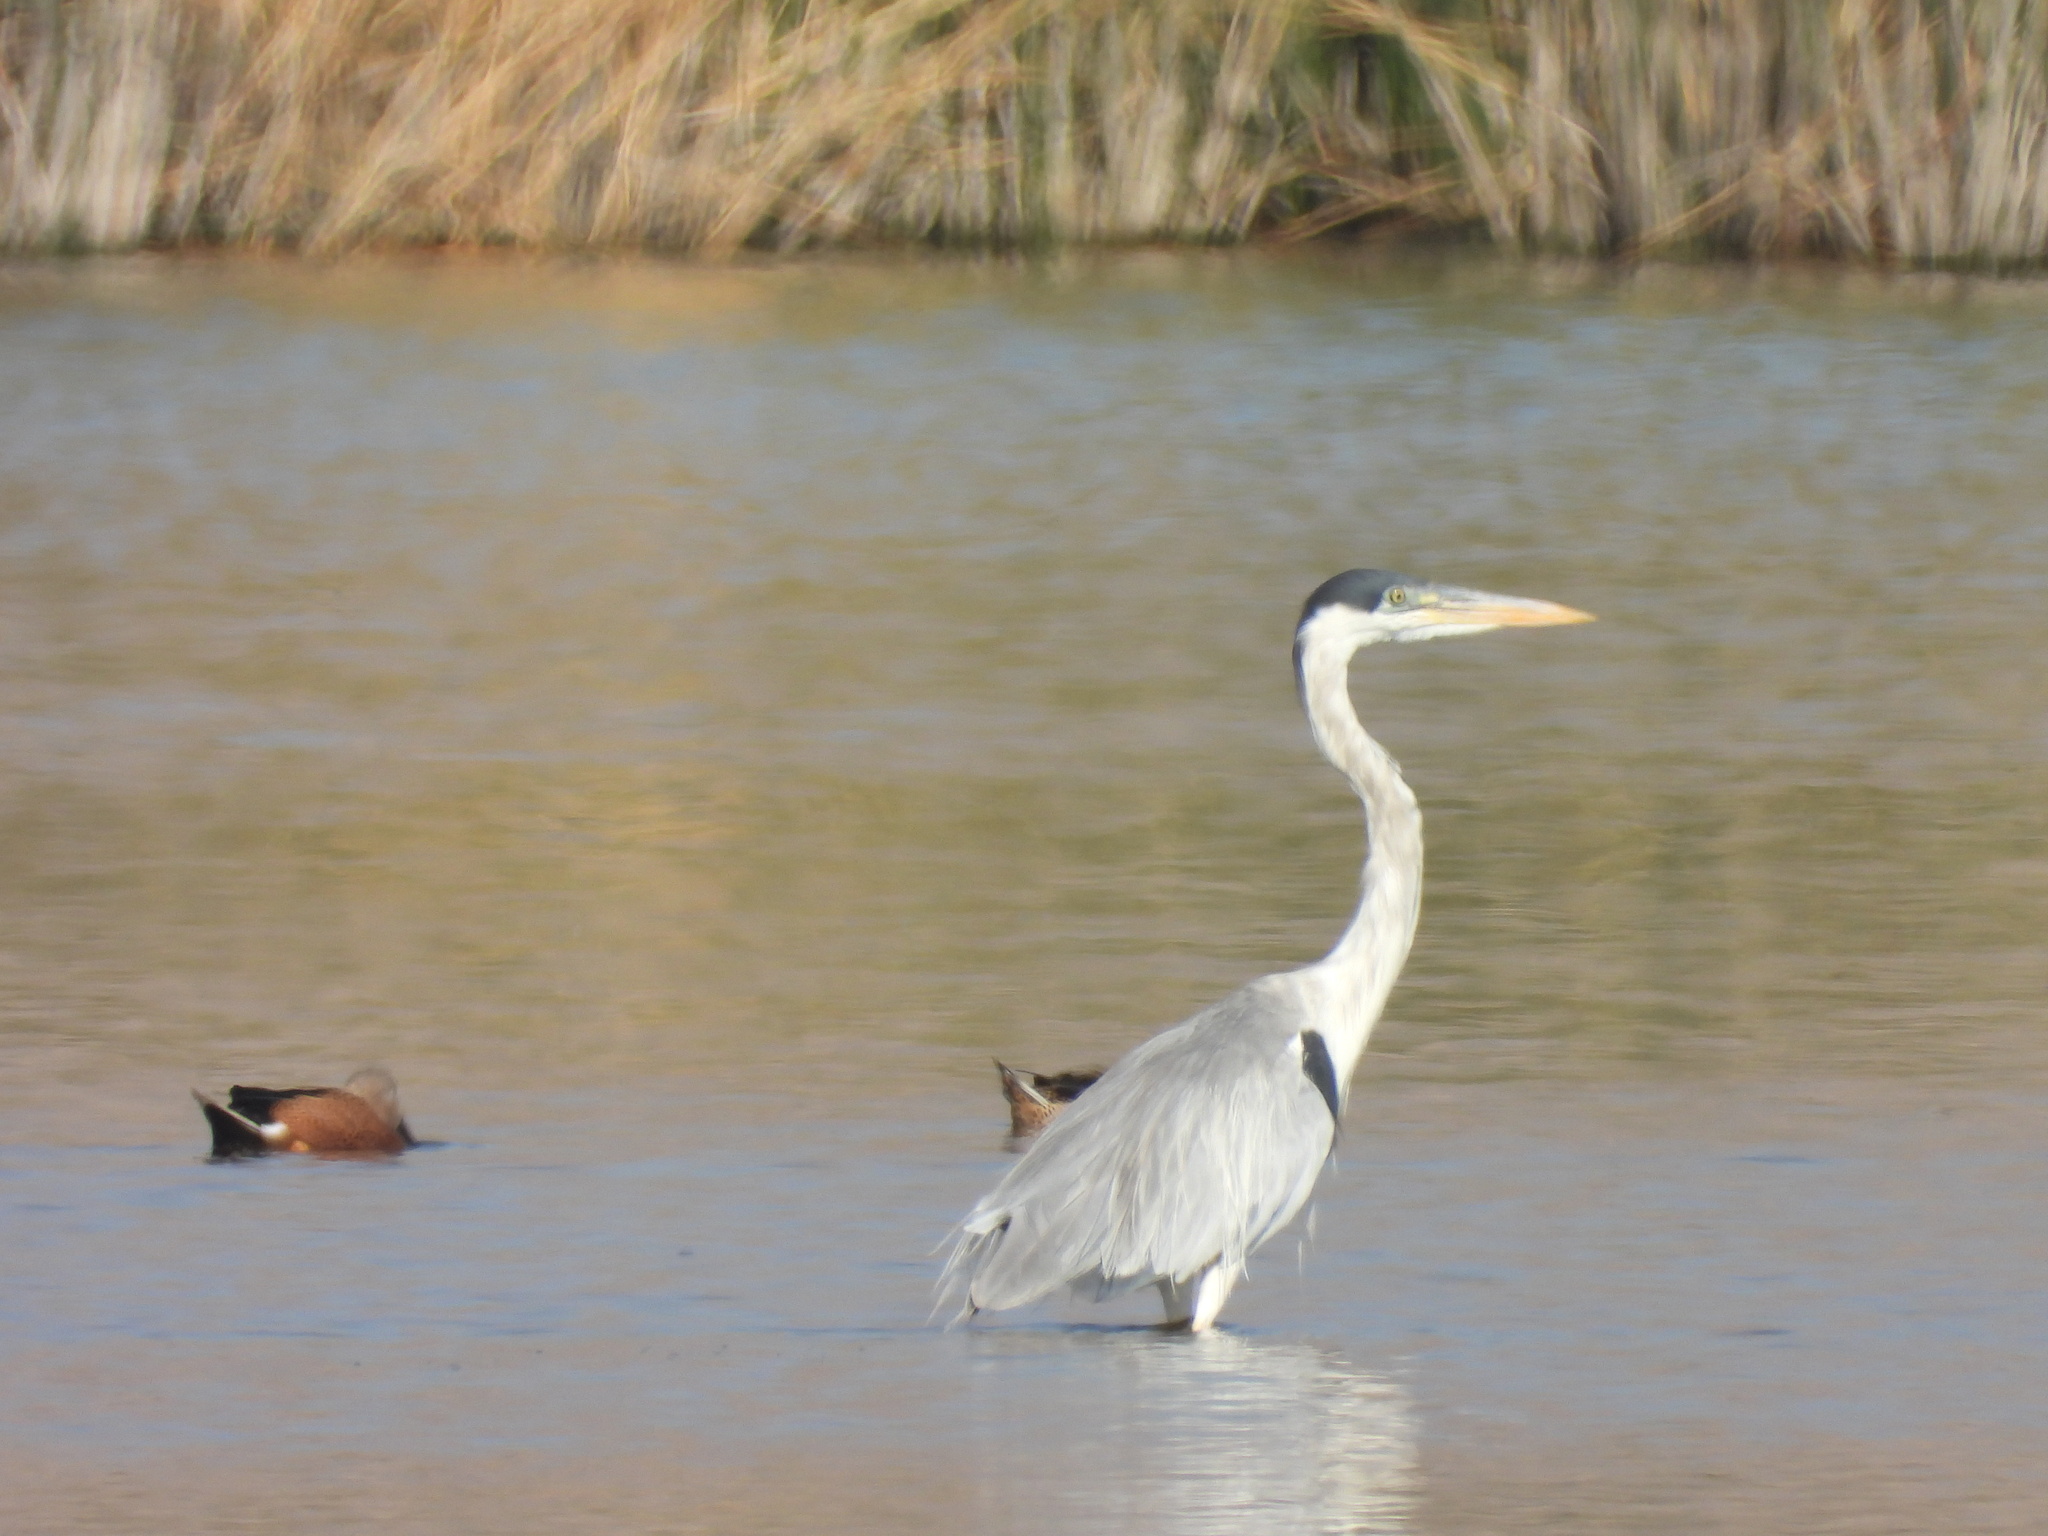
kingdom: Animalia
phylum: Chordata
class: Aves
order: Pelecaniformes
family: Ardeidae
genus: Ardea
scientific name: Ardea cocoi
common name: Cocoi heron
